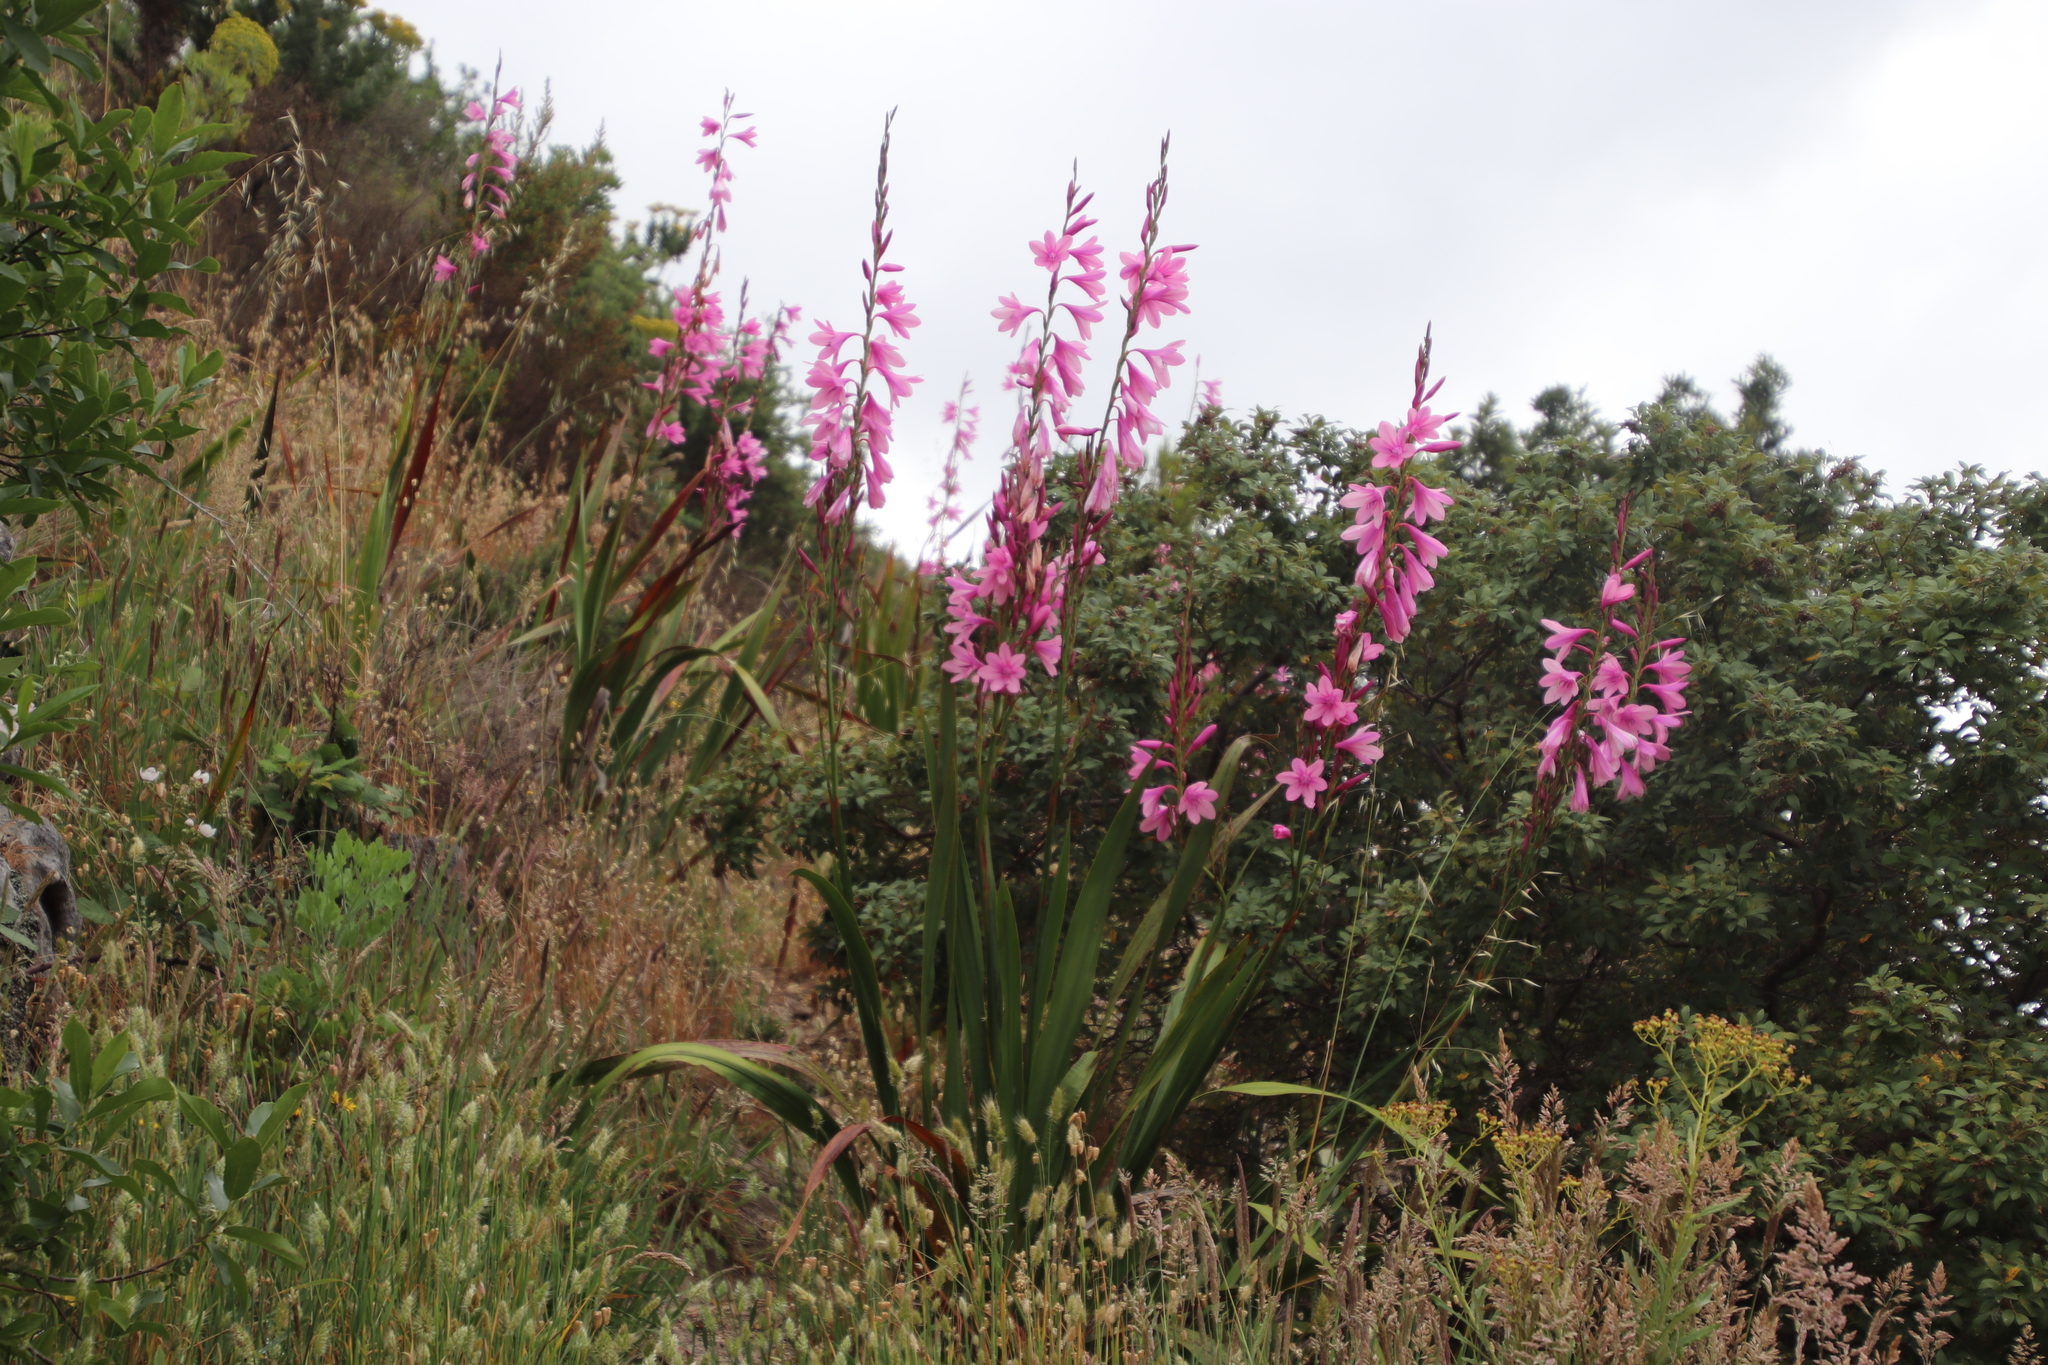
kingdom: Plantae
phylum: Tracheophyta
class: Liliopsida
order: Asparagales
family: Iridaceae
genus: Watsonia
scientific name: Watsonia borbonica
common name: Bugle-lily
